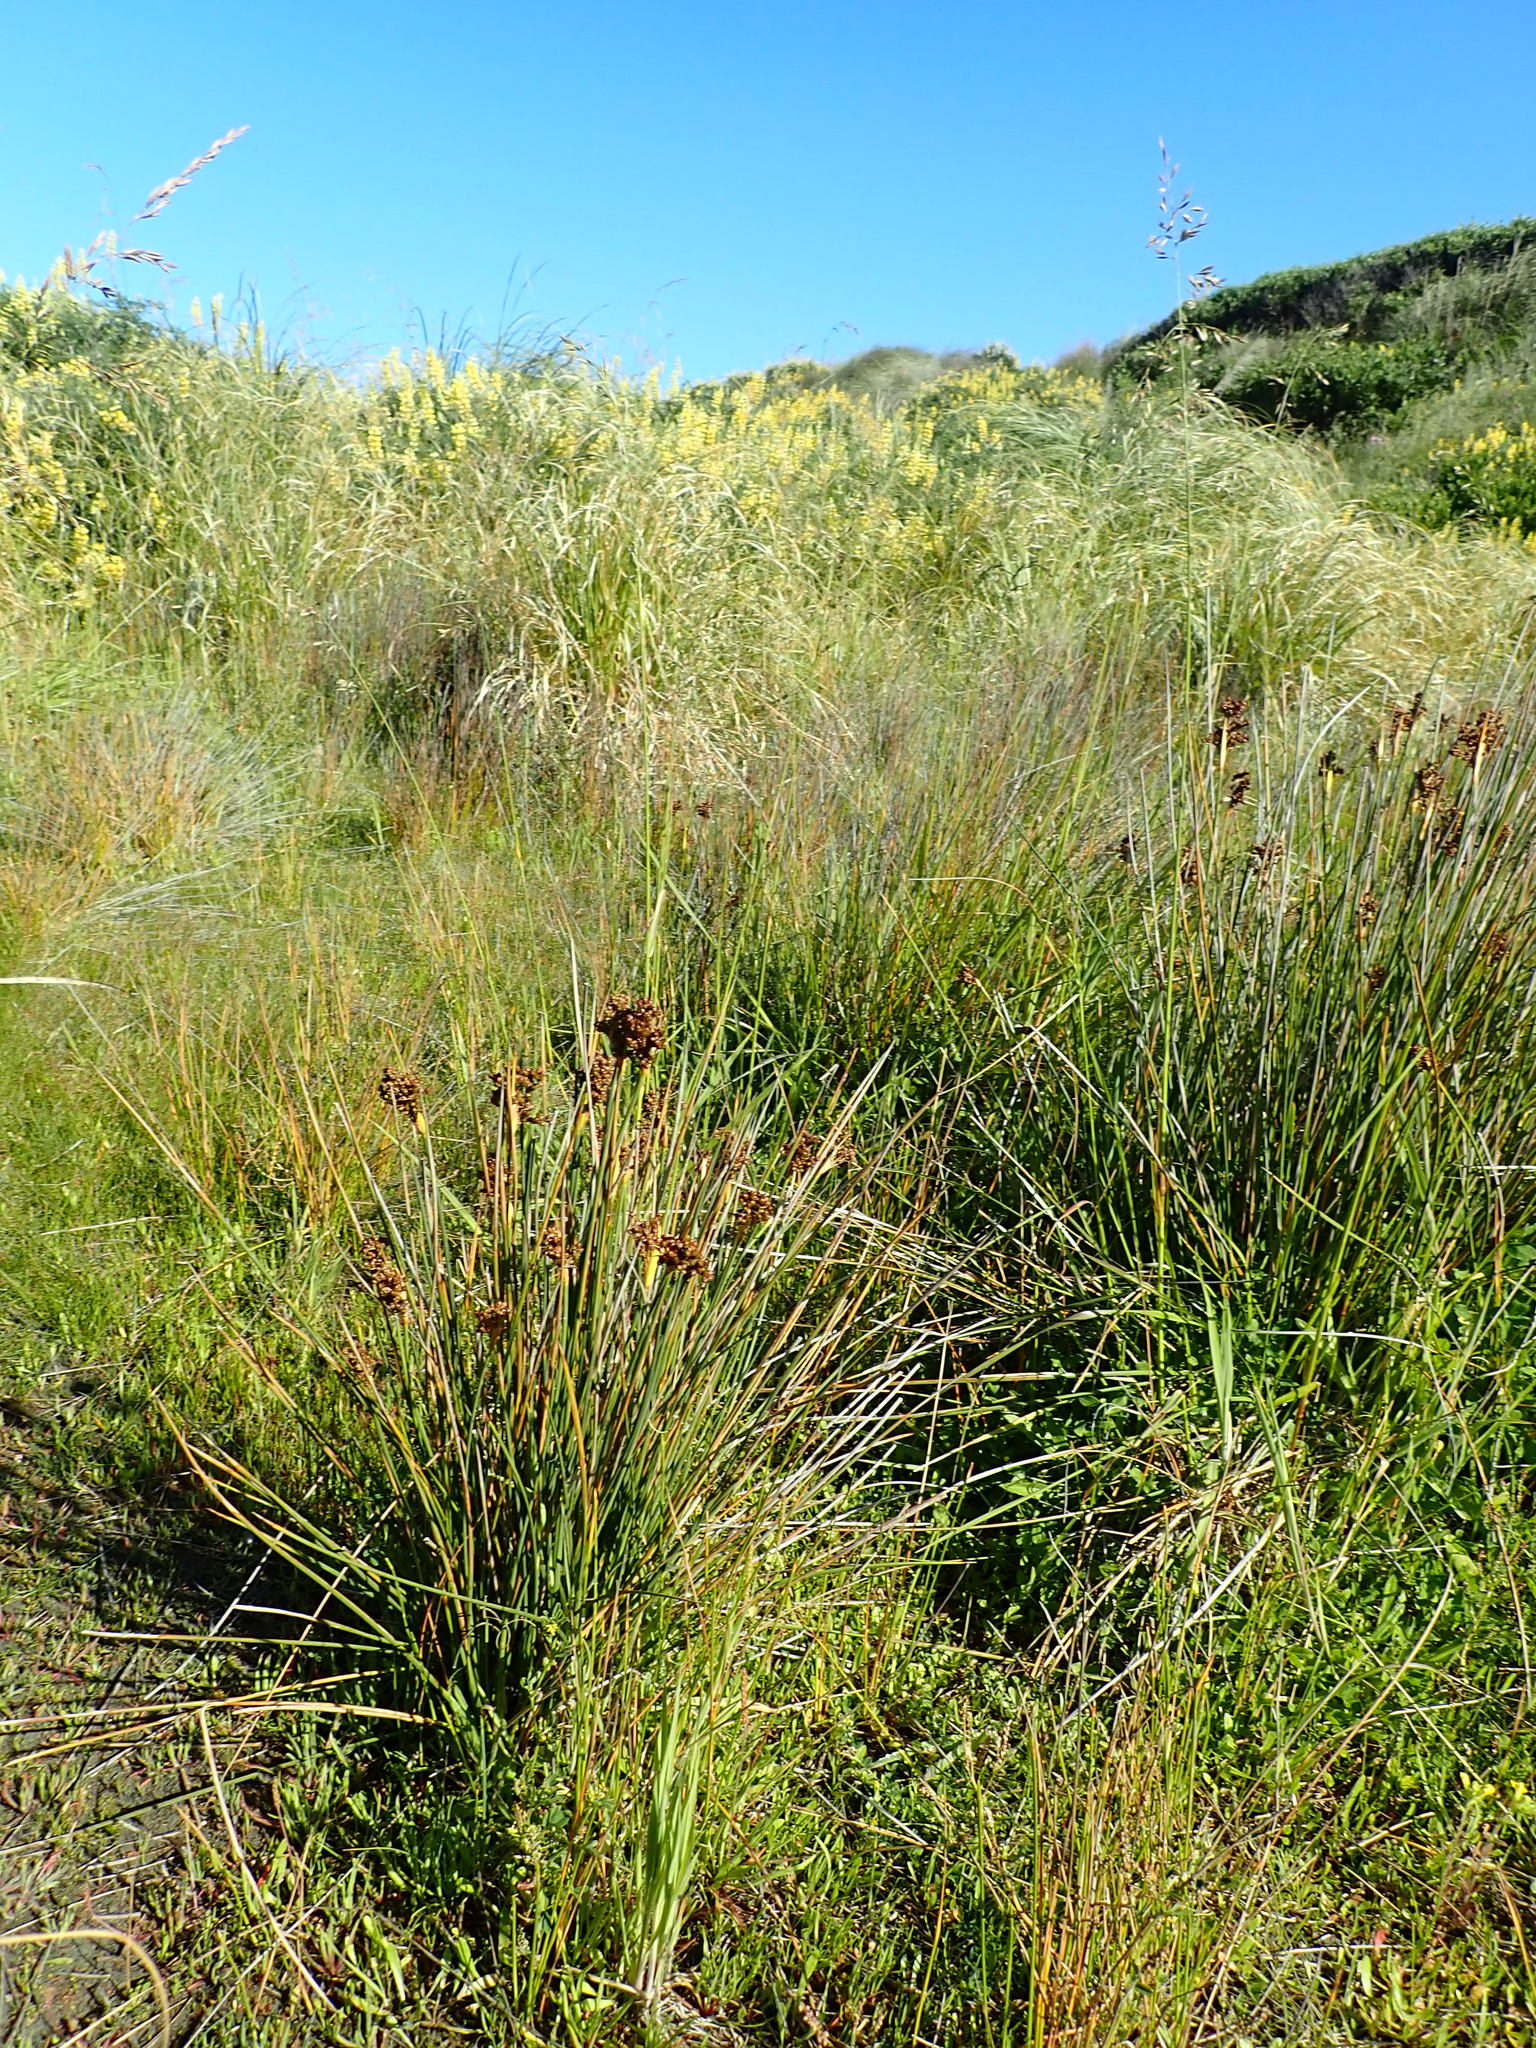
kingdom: Plantae
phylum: Tracheophyta
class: Liliopsida
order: Poales
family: Juncaceae
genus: Juncus
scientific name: Juncus acutus
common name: Sharp rush
